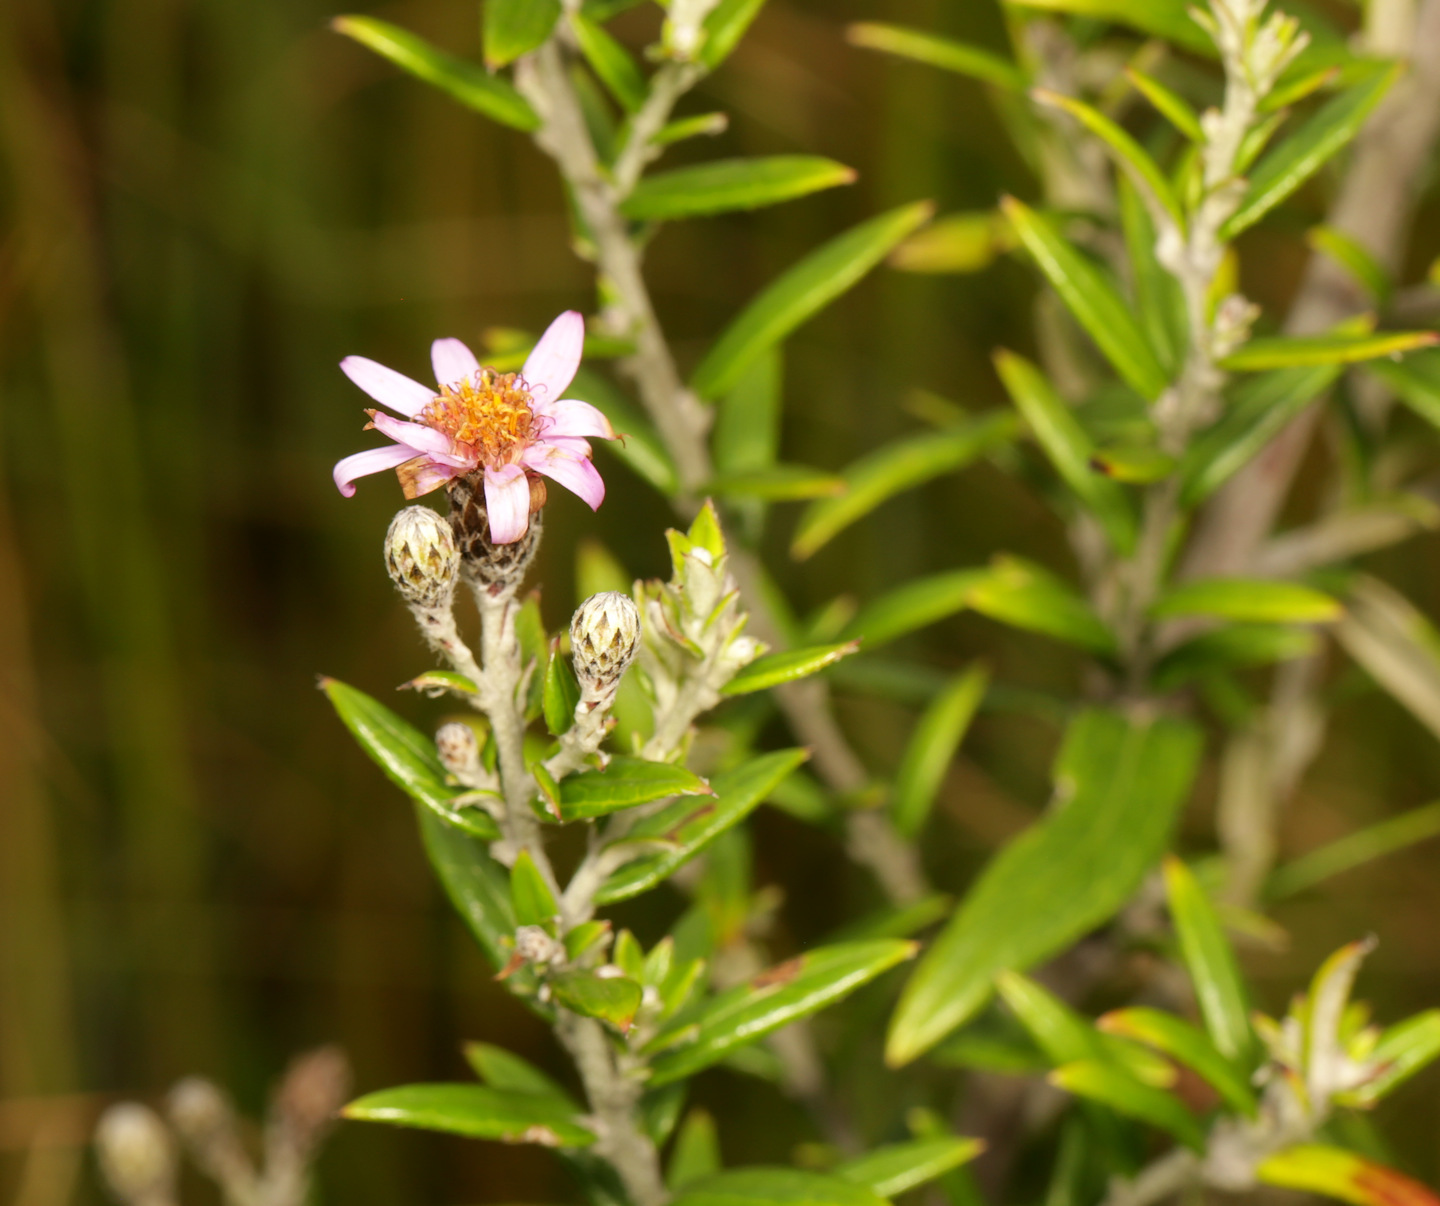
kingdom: Plantae
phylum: Tracheophyta
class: Magnoliopsida
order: Asterales
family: Asteraceae
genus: Athrixia
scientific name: Athrixia phylicoides
